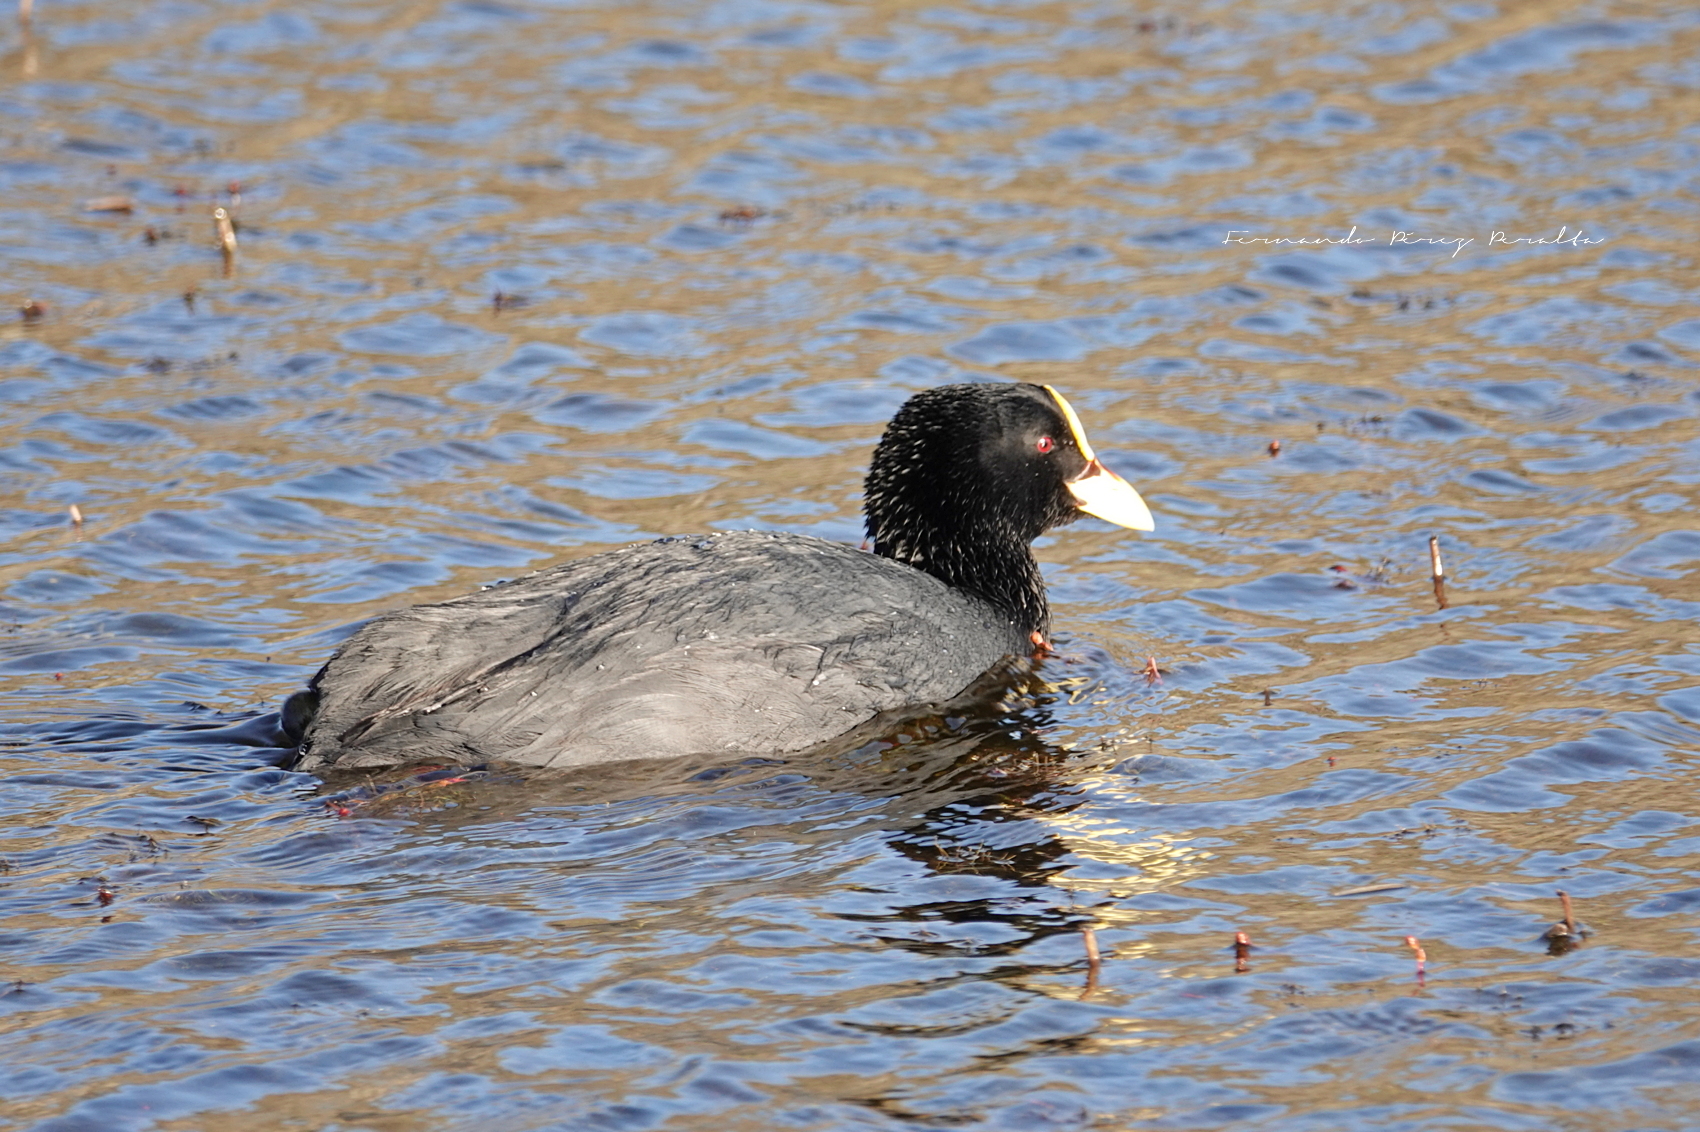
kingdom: Animalia
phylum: Chordata
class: Aves
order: Gruiformes
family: Rallidae
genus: Fulica
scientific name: Fulica armillata
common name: Red-gartered coot
